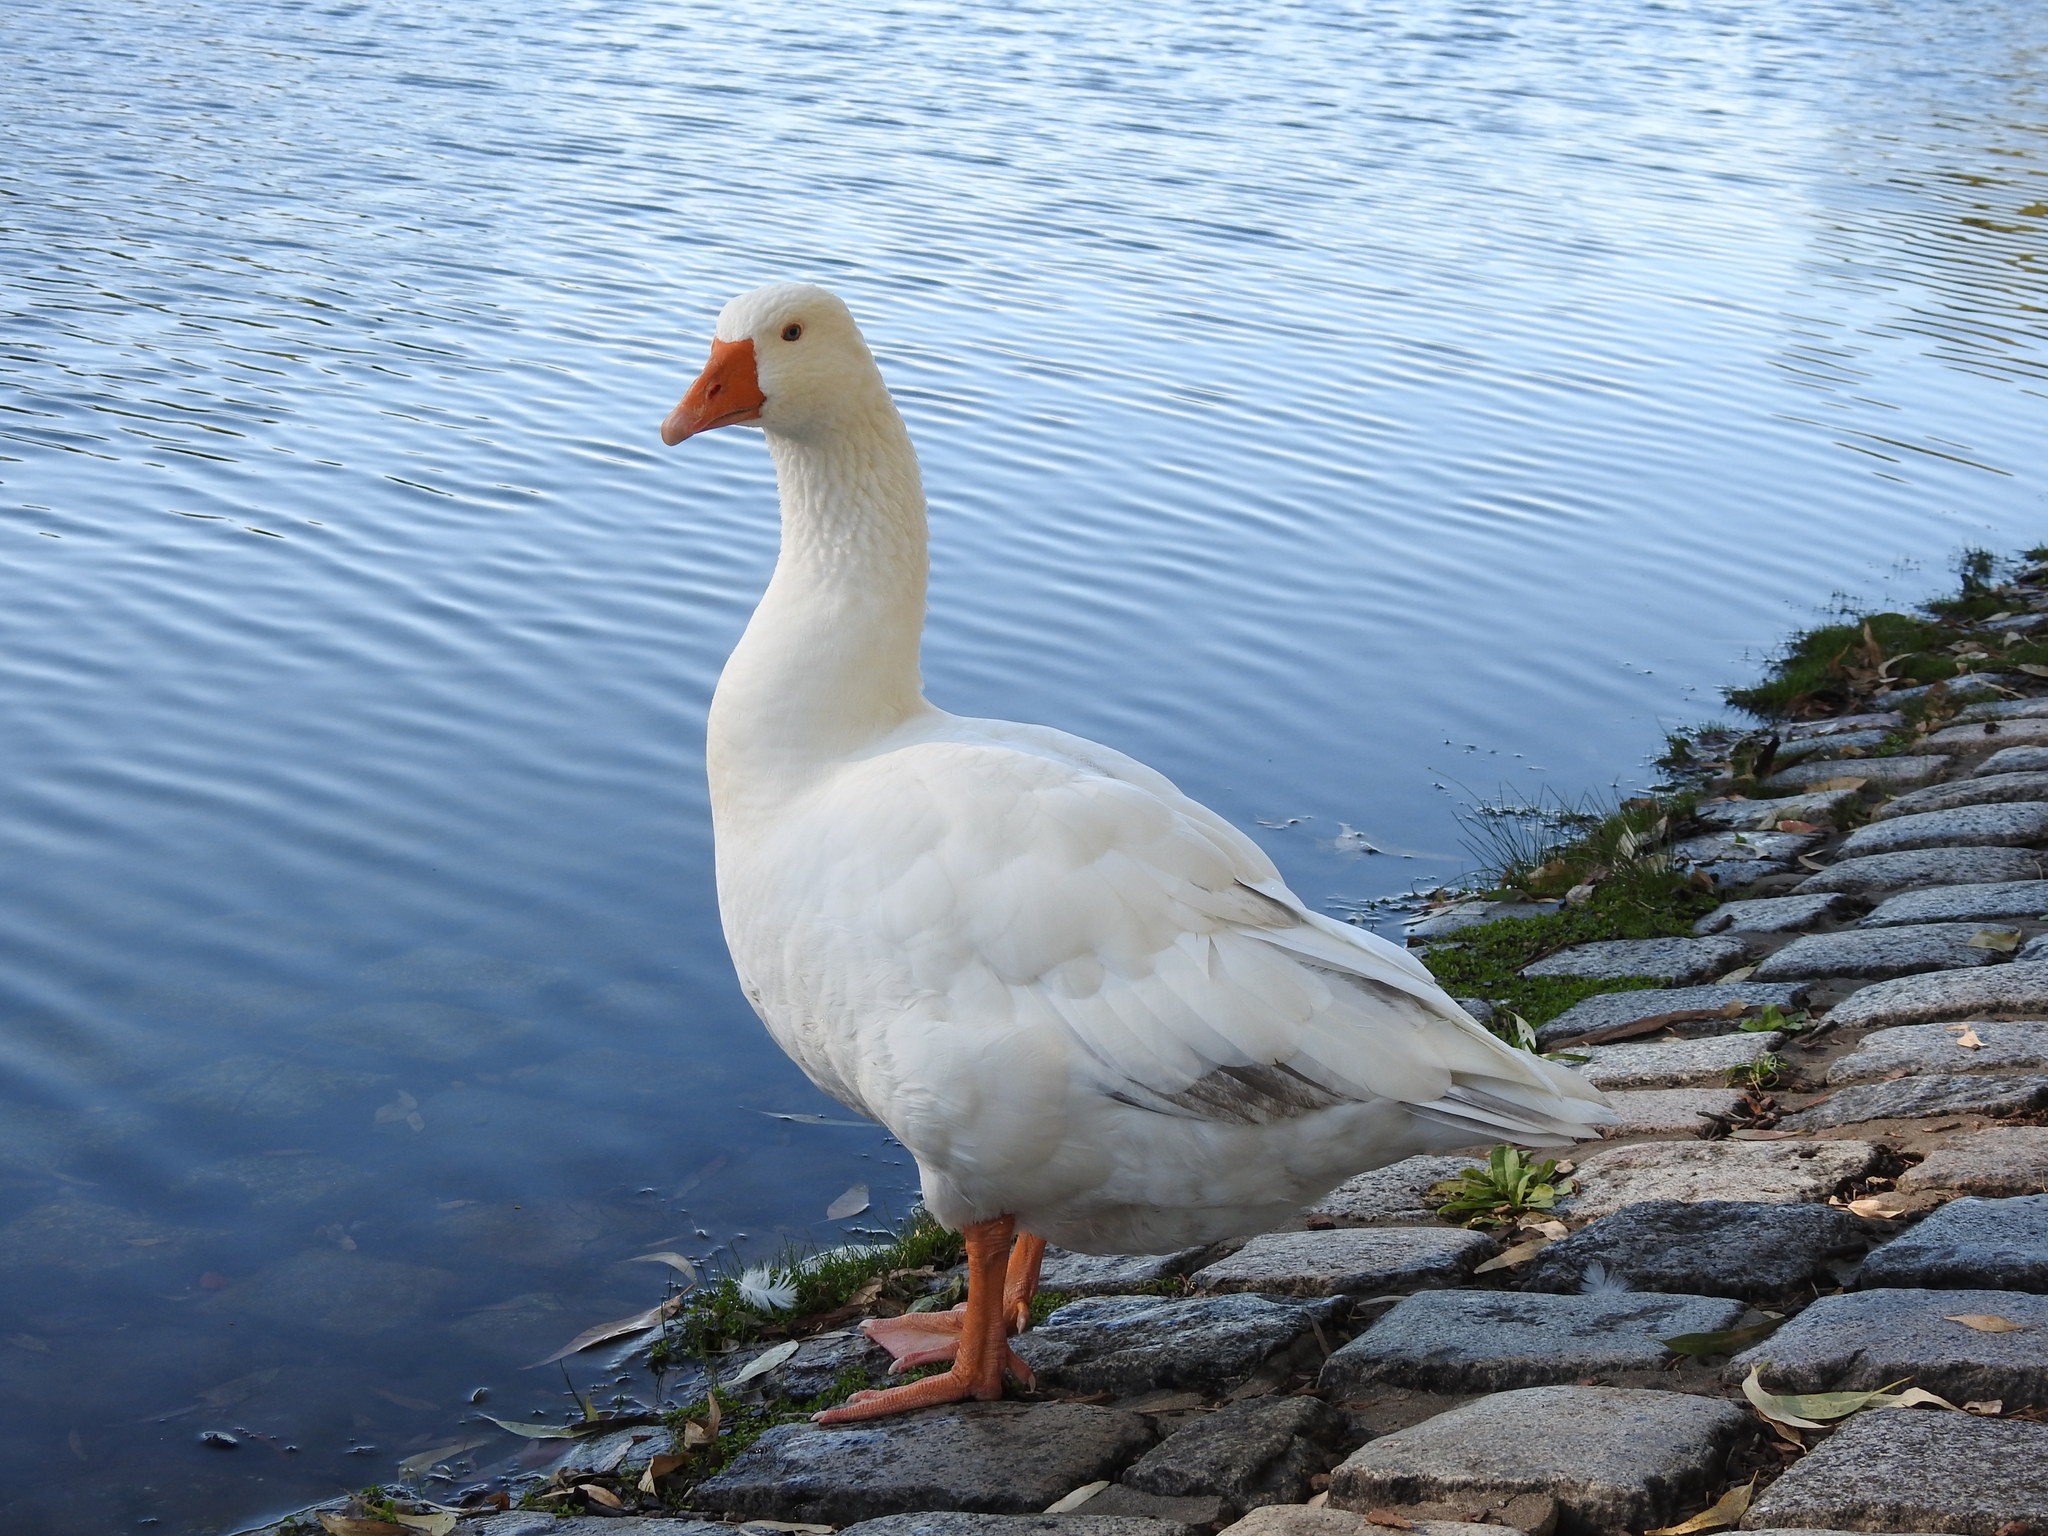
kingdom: Animalia
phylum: Chordata
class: Aves
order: Anseriformes
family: Anatidae
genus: Anser
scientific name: Anser anser
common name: Greylag goose
